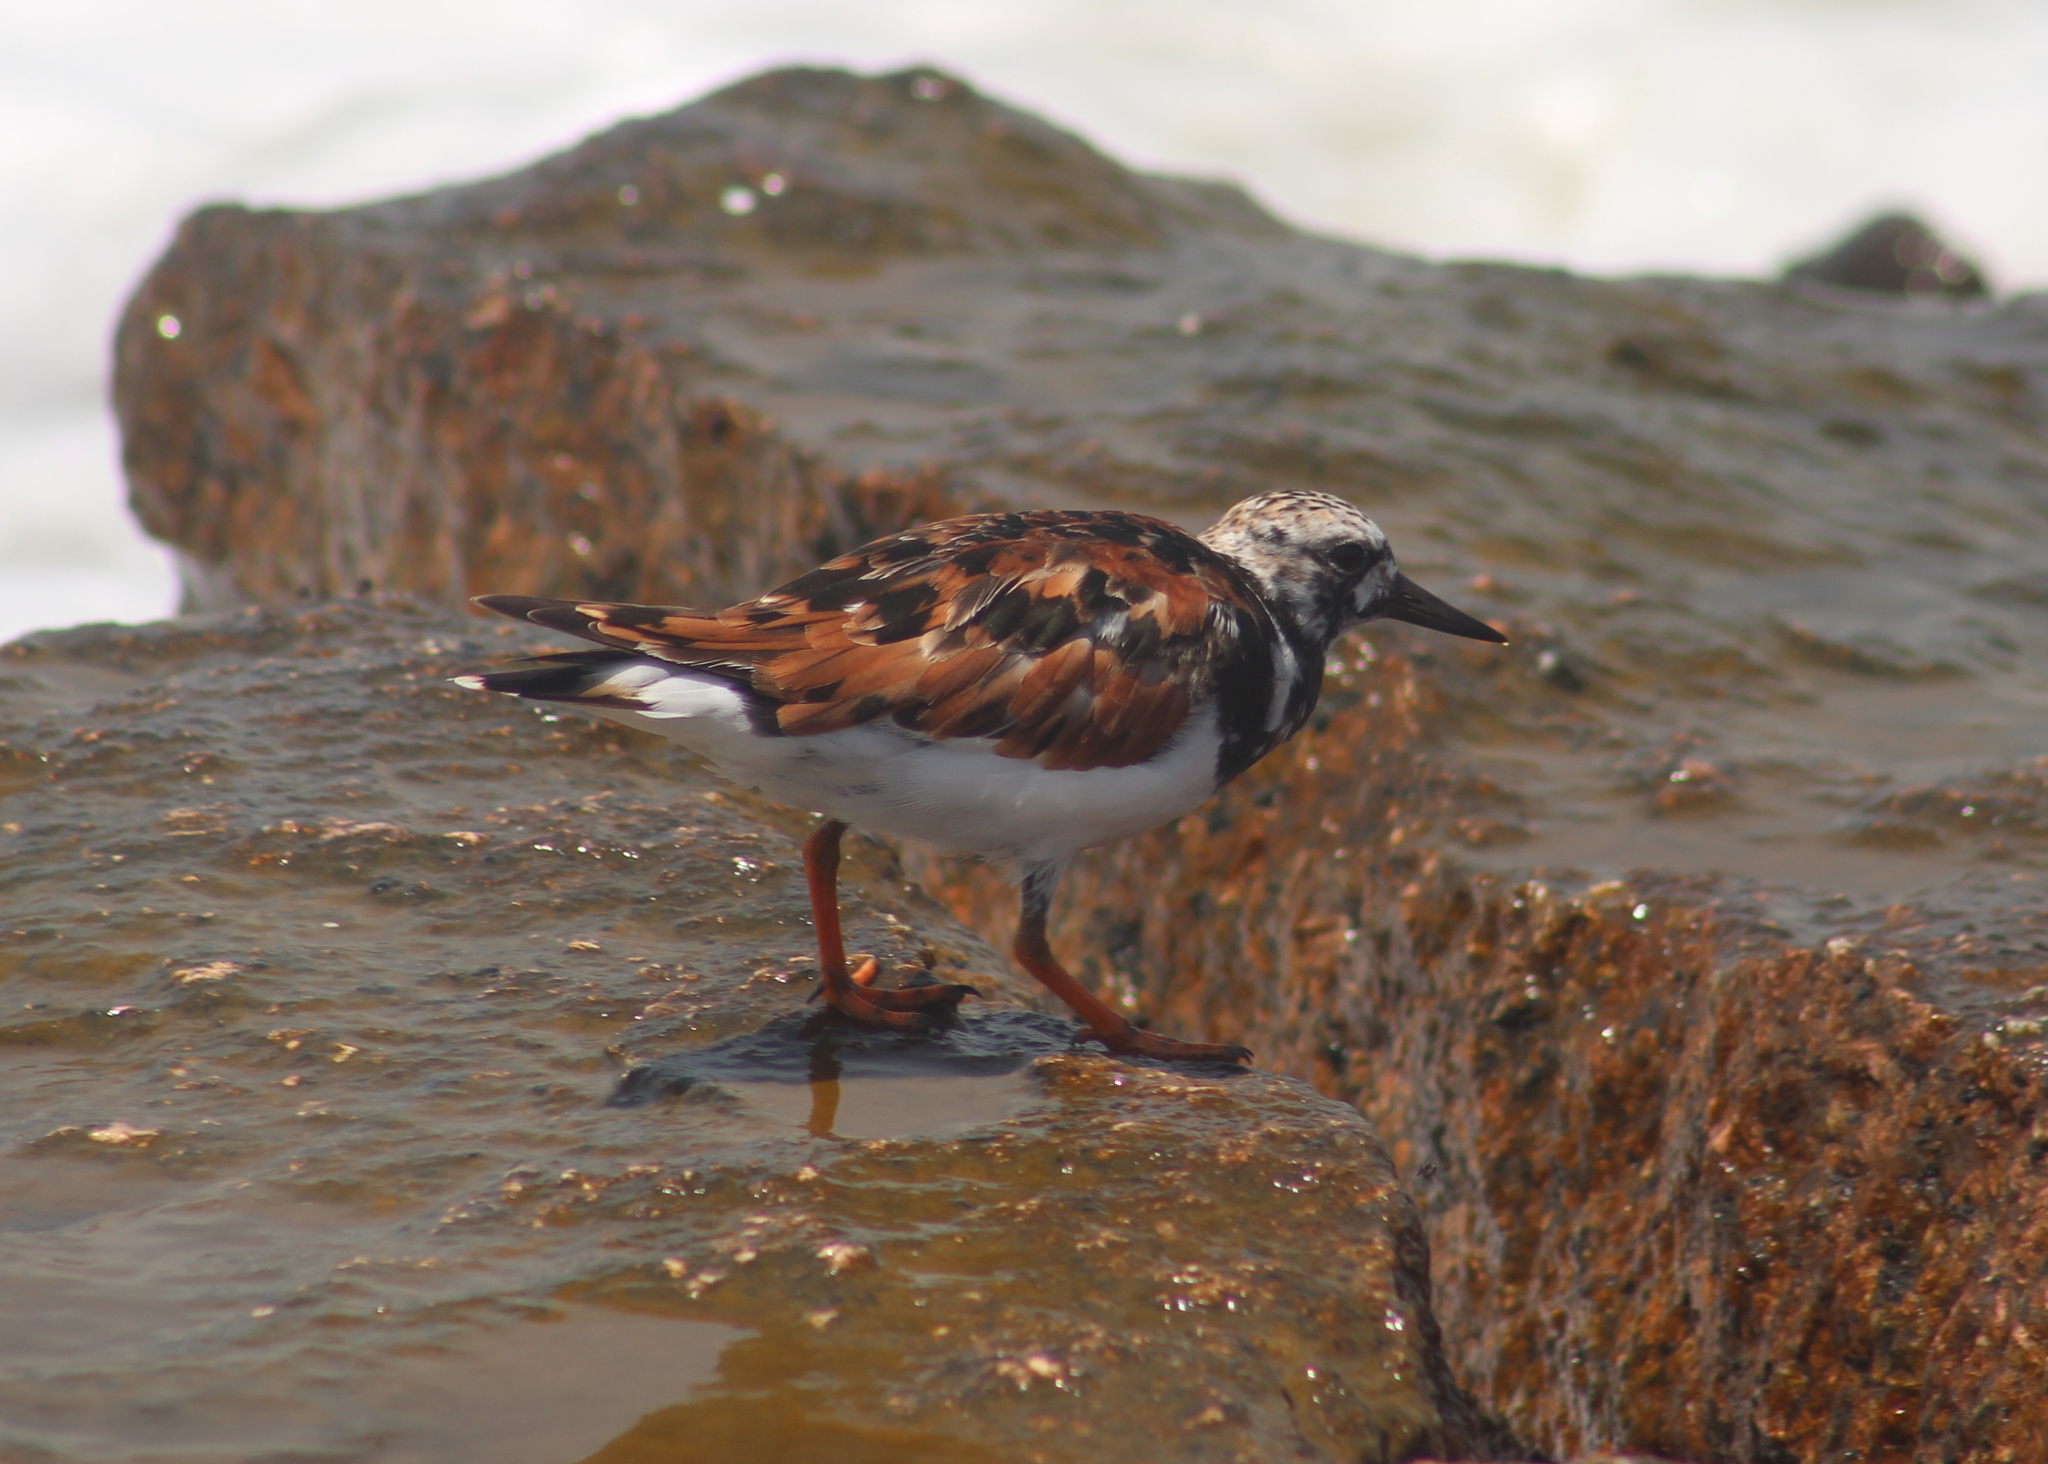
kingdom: Animalia
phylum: Chordata
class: Aves
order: Charadriiformes
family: Scolopacidae
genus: Arenaria
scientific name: Arenaria interpres
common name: Ruddy turnstone
